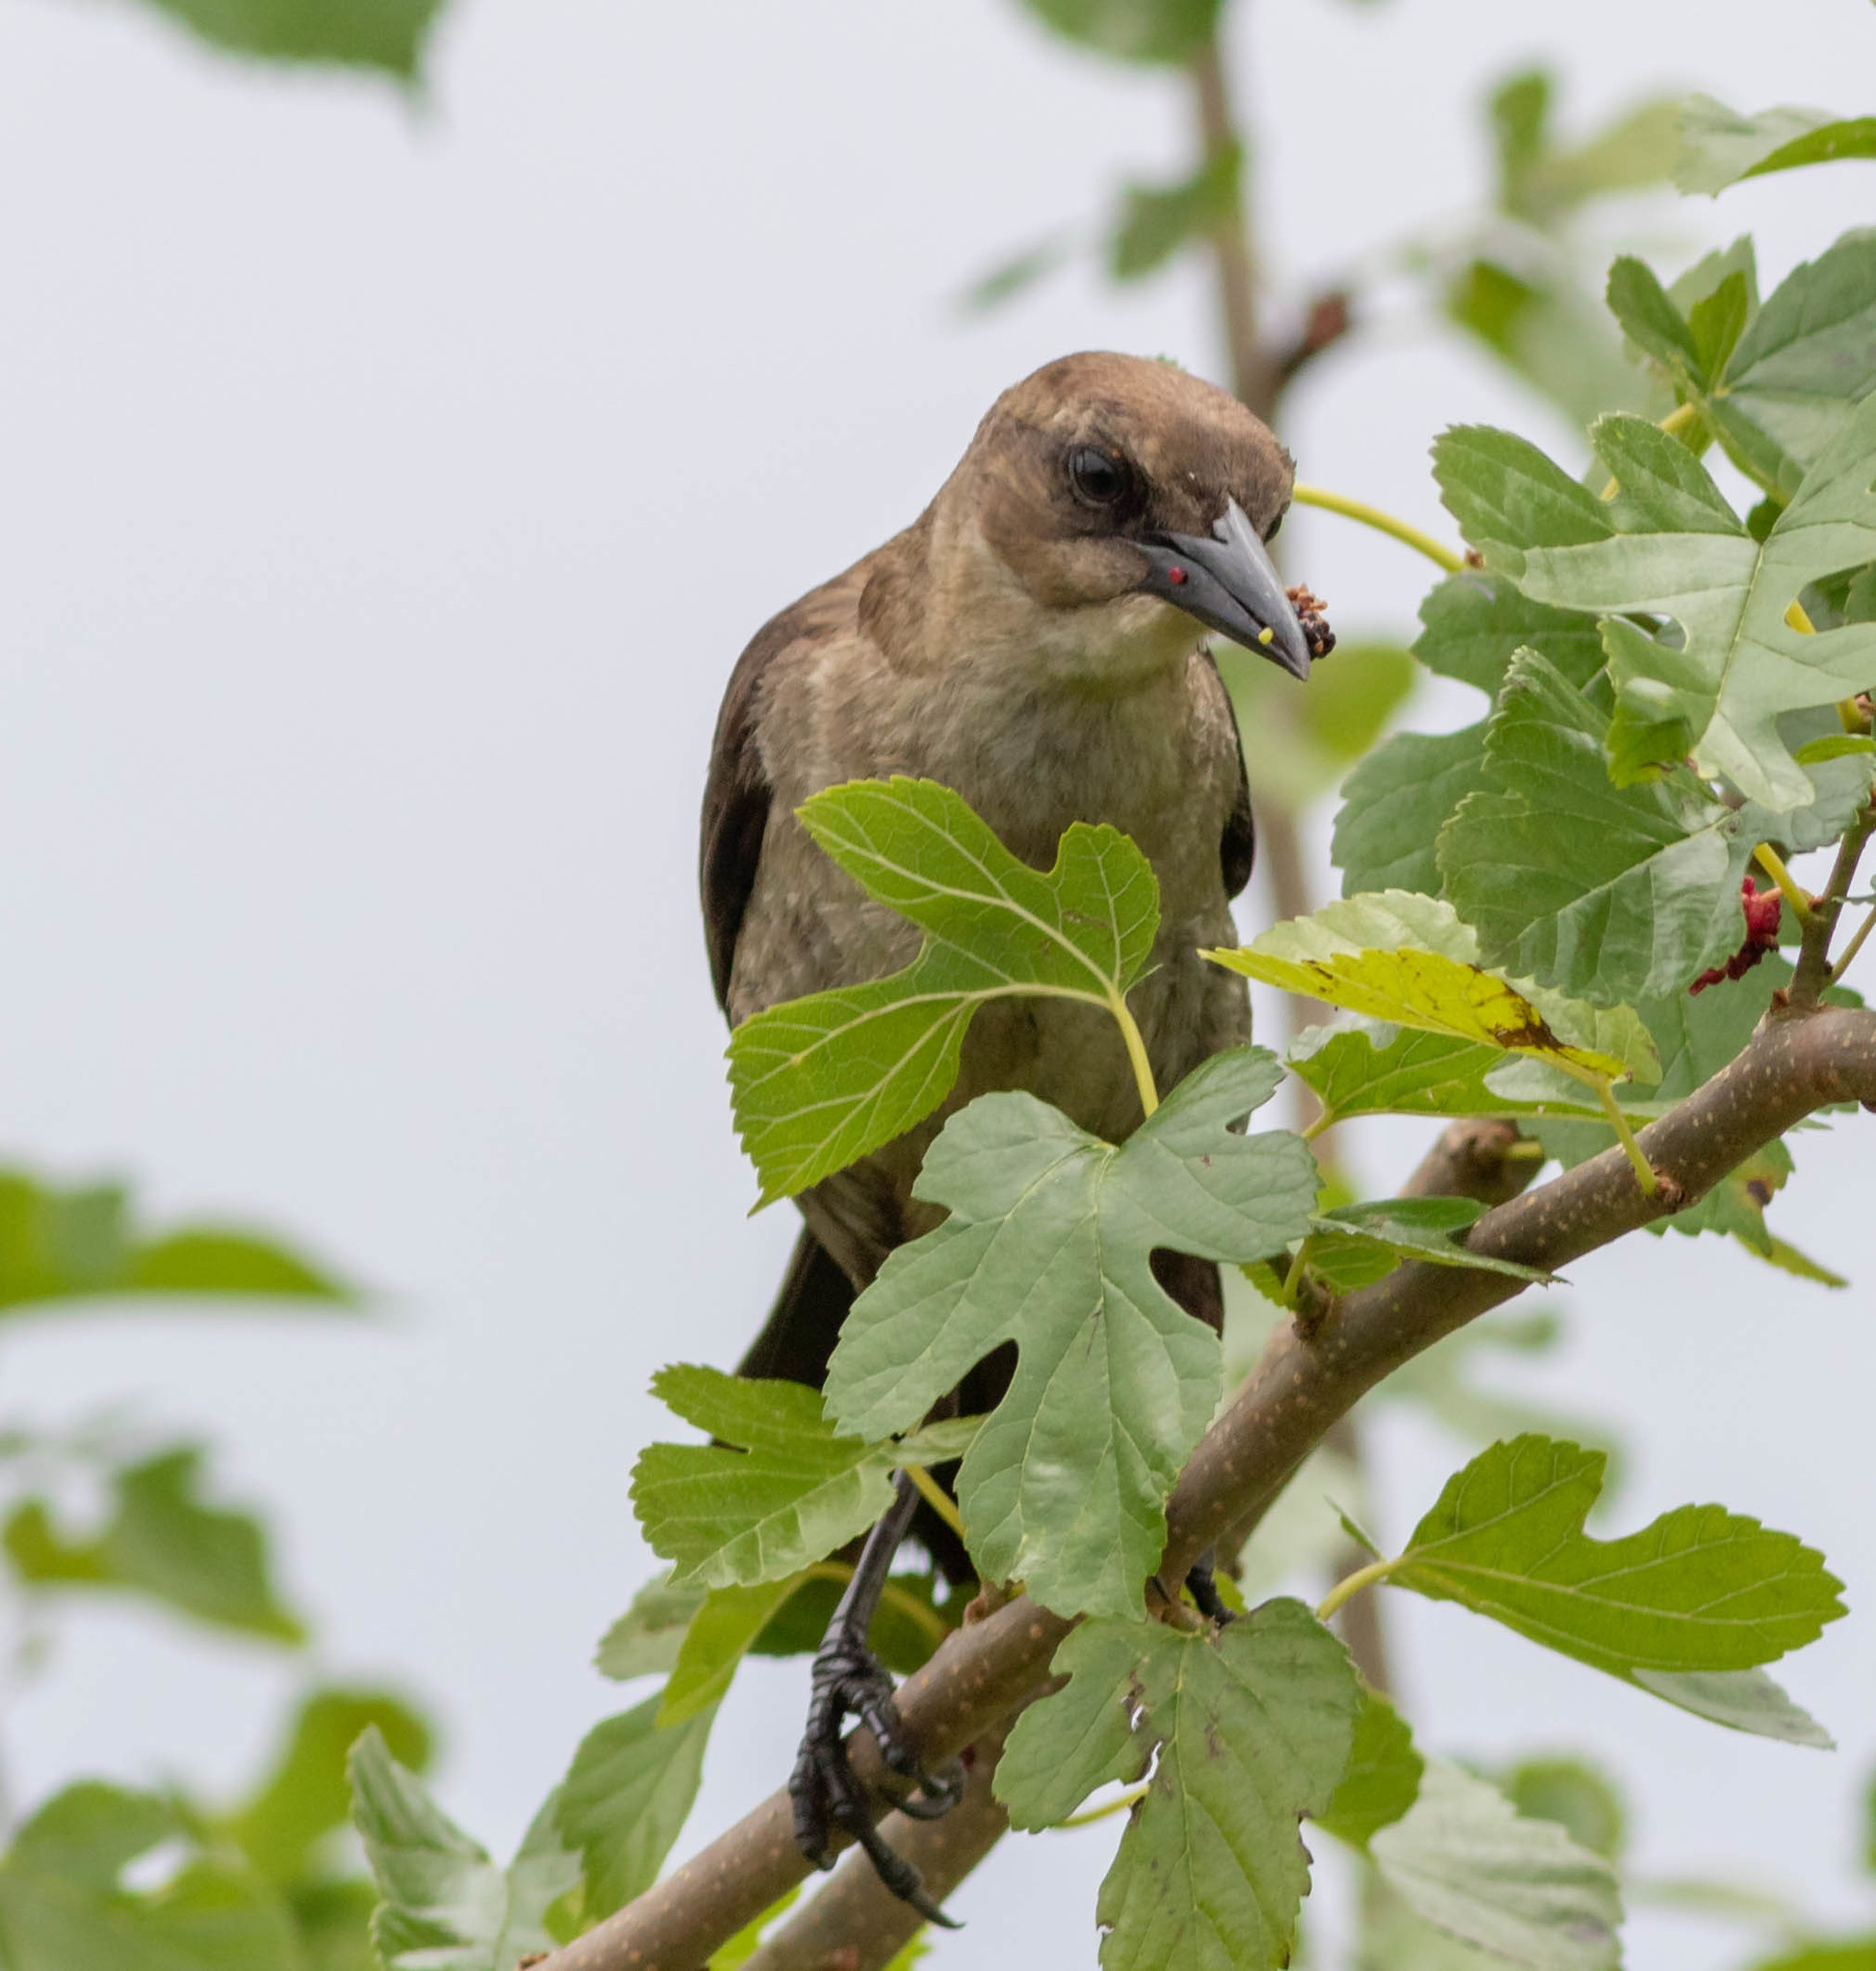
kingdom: Animalia
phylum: Chordata
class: Aves
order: Passeriformes
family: Icteridae
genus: Quiscalus
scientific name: Quiscalus major
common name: Boat-tailed grackle
